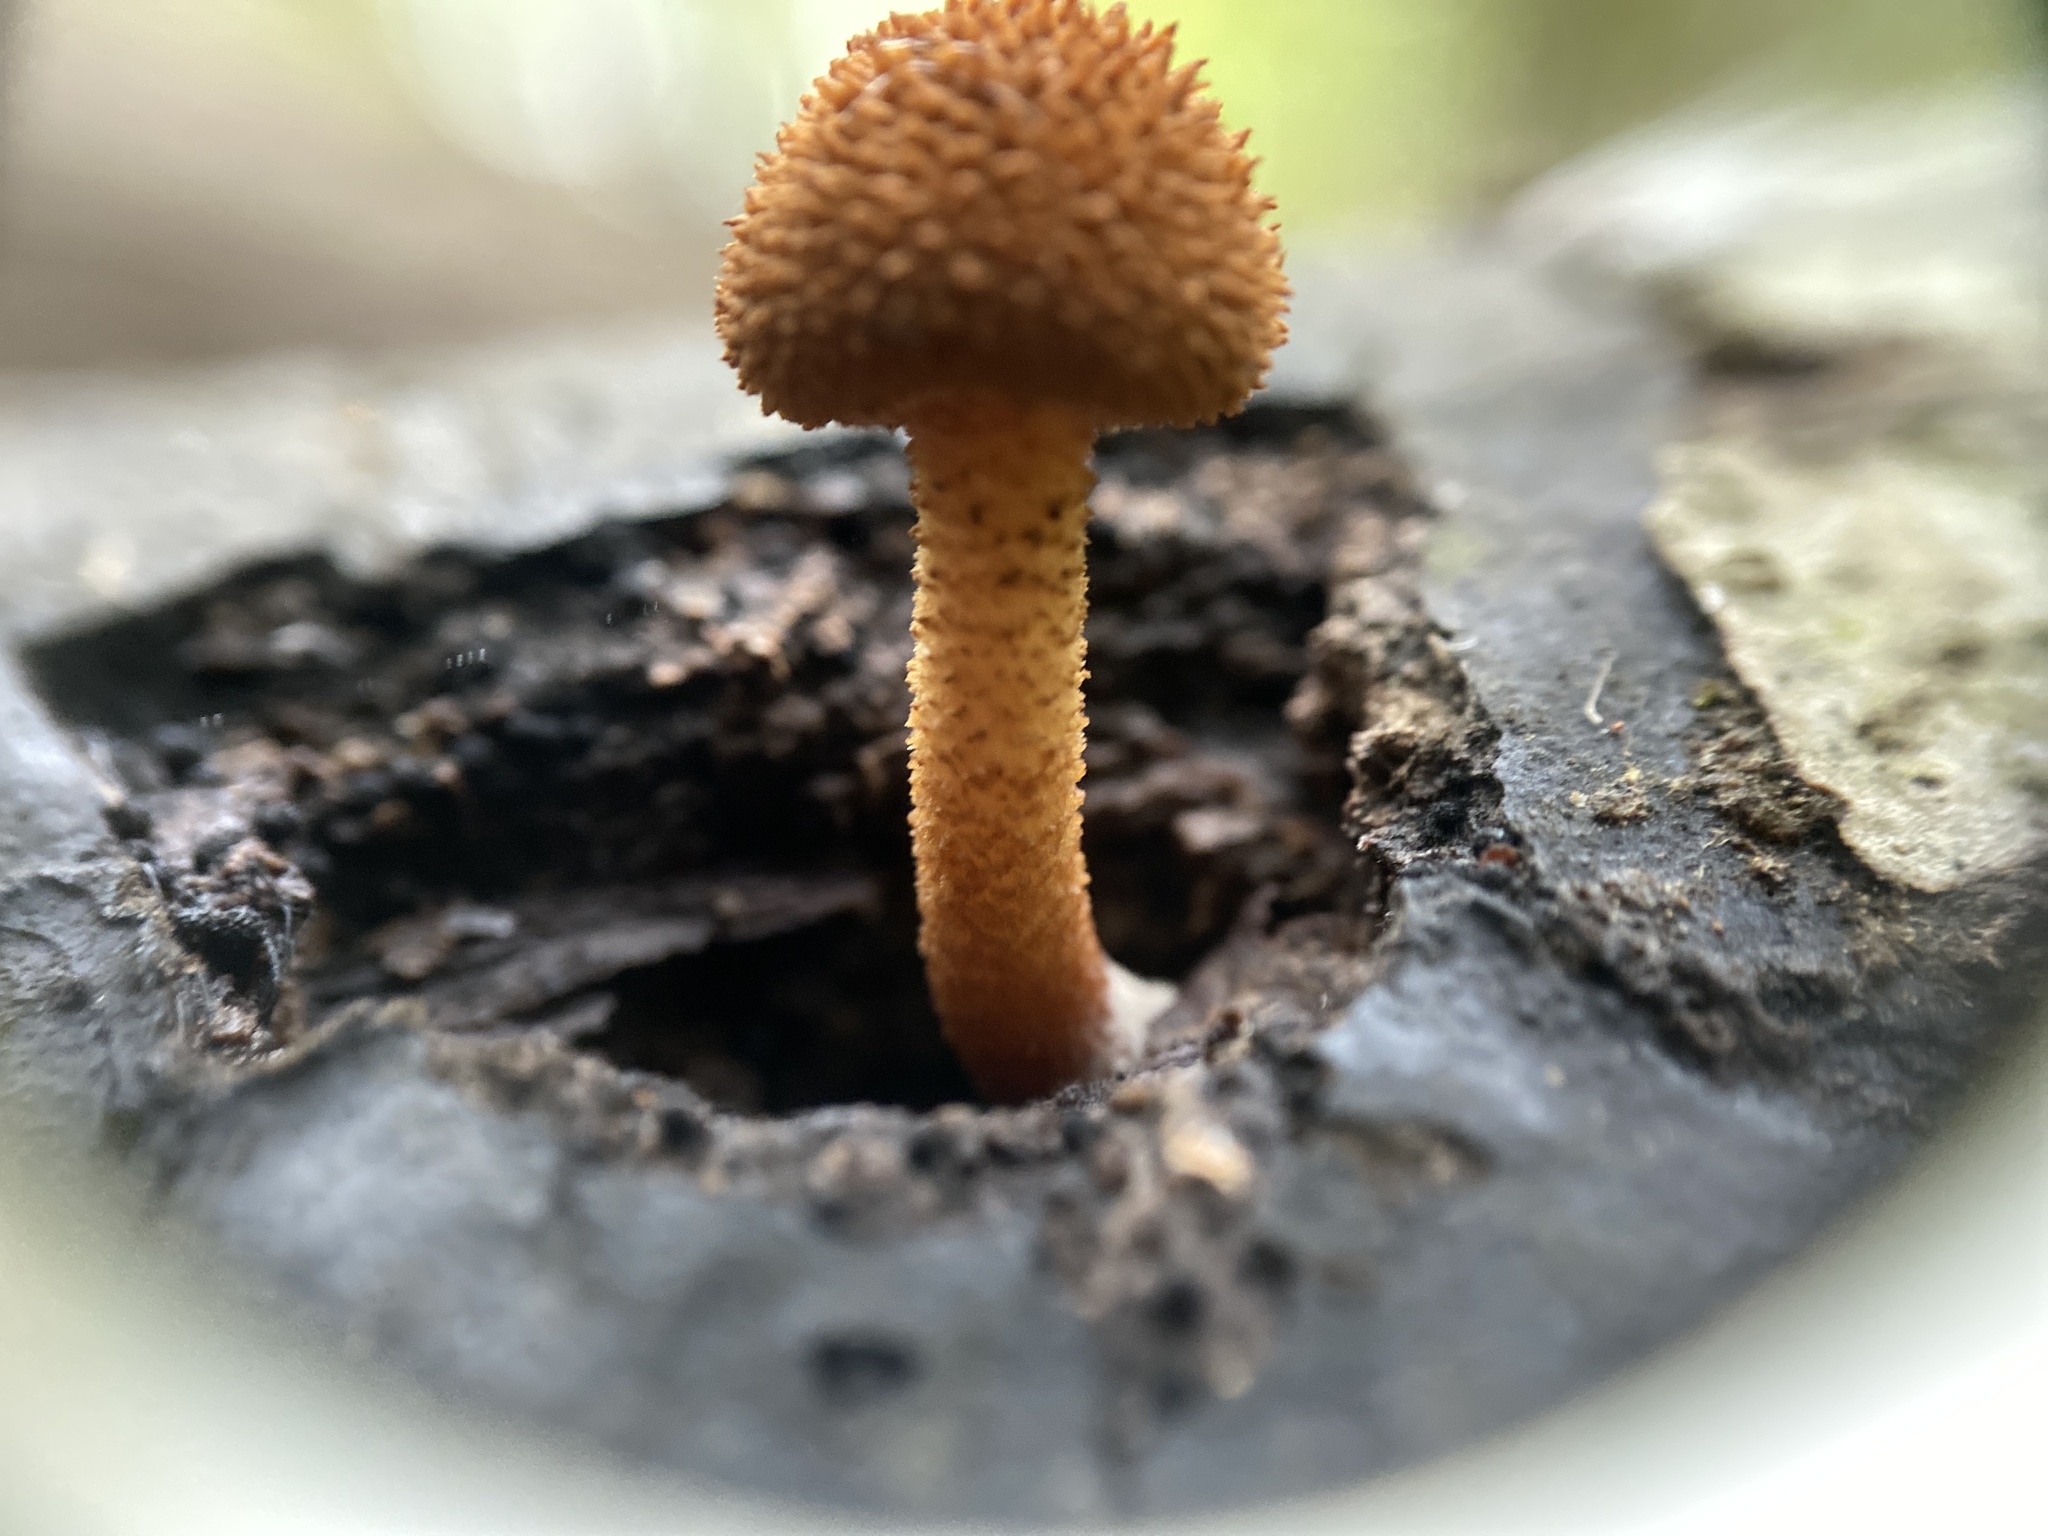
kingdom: Fungi
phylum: Basidiomycota
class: Agaricomycetes
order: Agaricales
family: Tubariaceae
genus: Flammulaster
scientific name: Flammulaster erinaceellus
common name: Powder-scale pholiota
